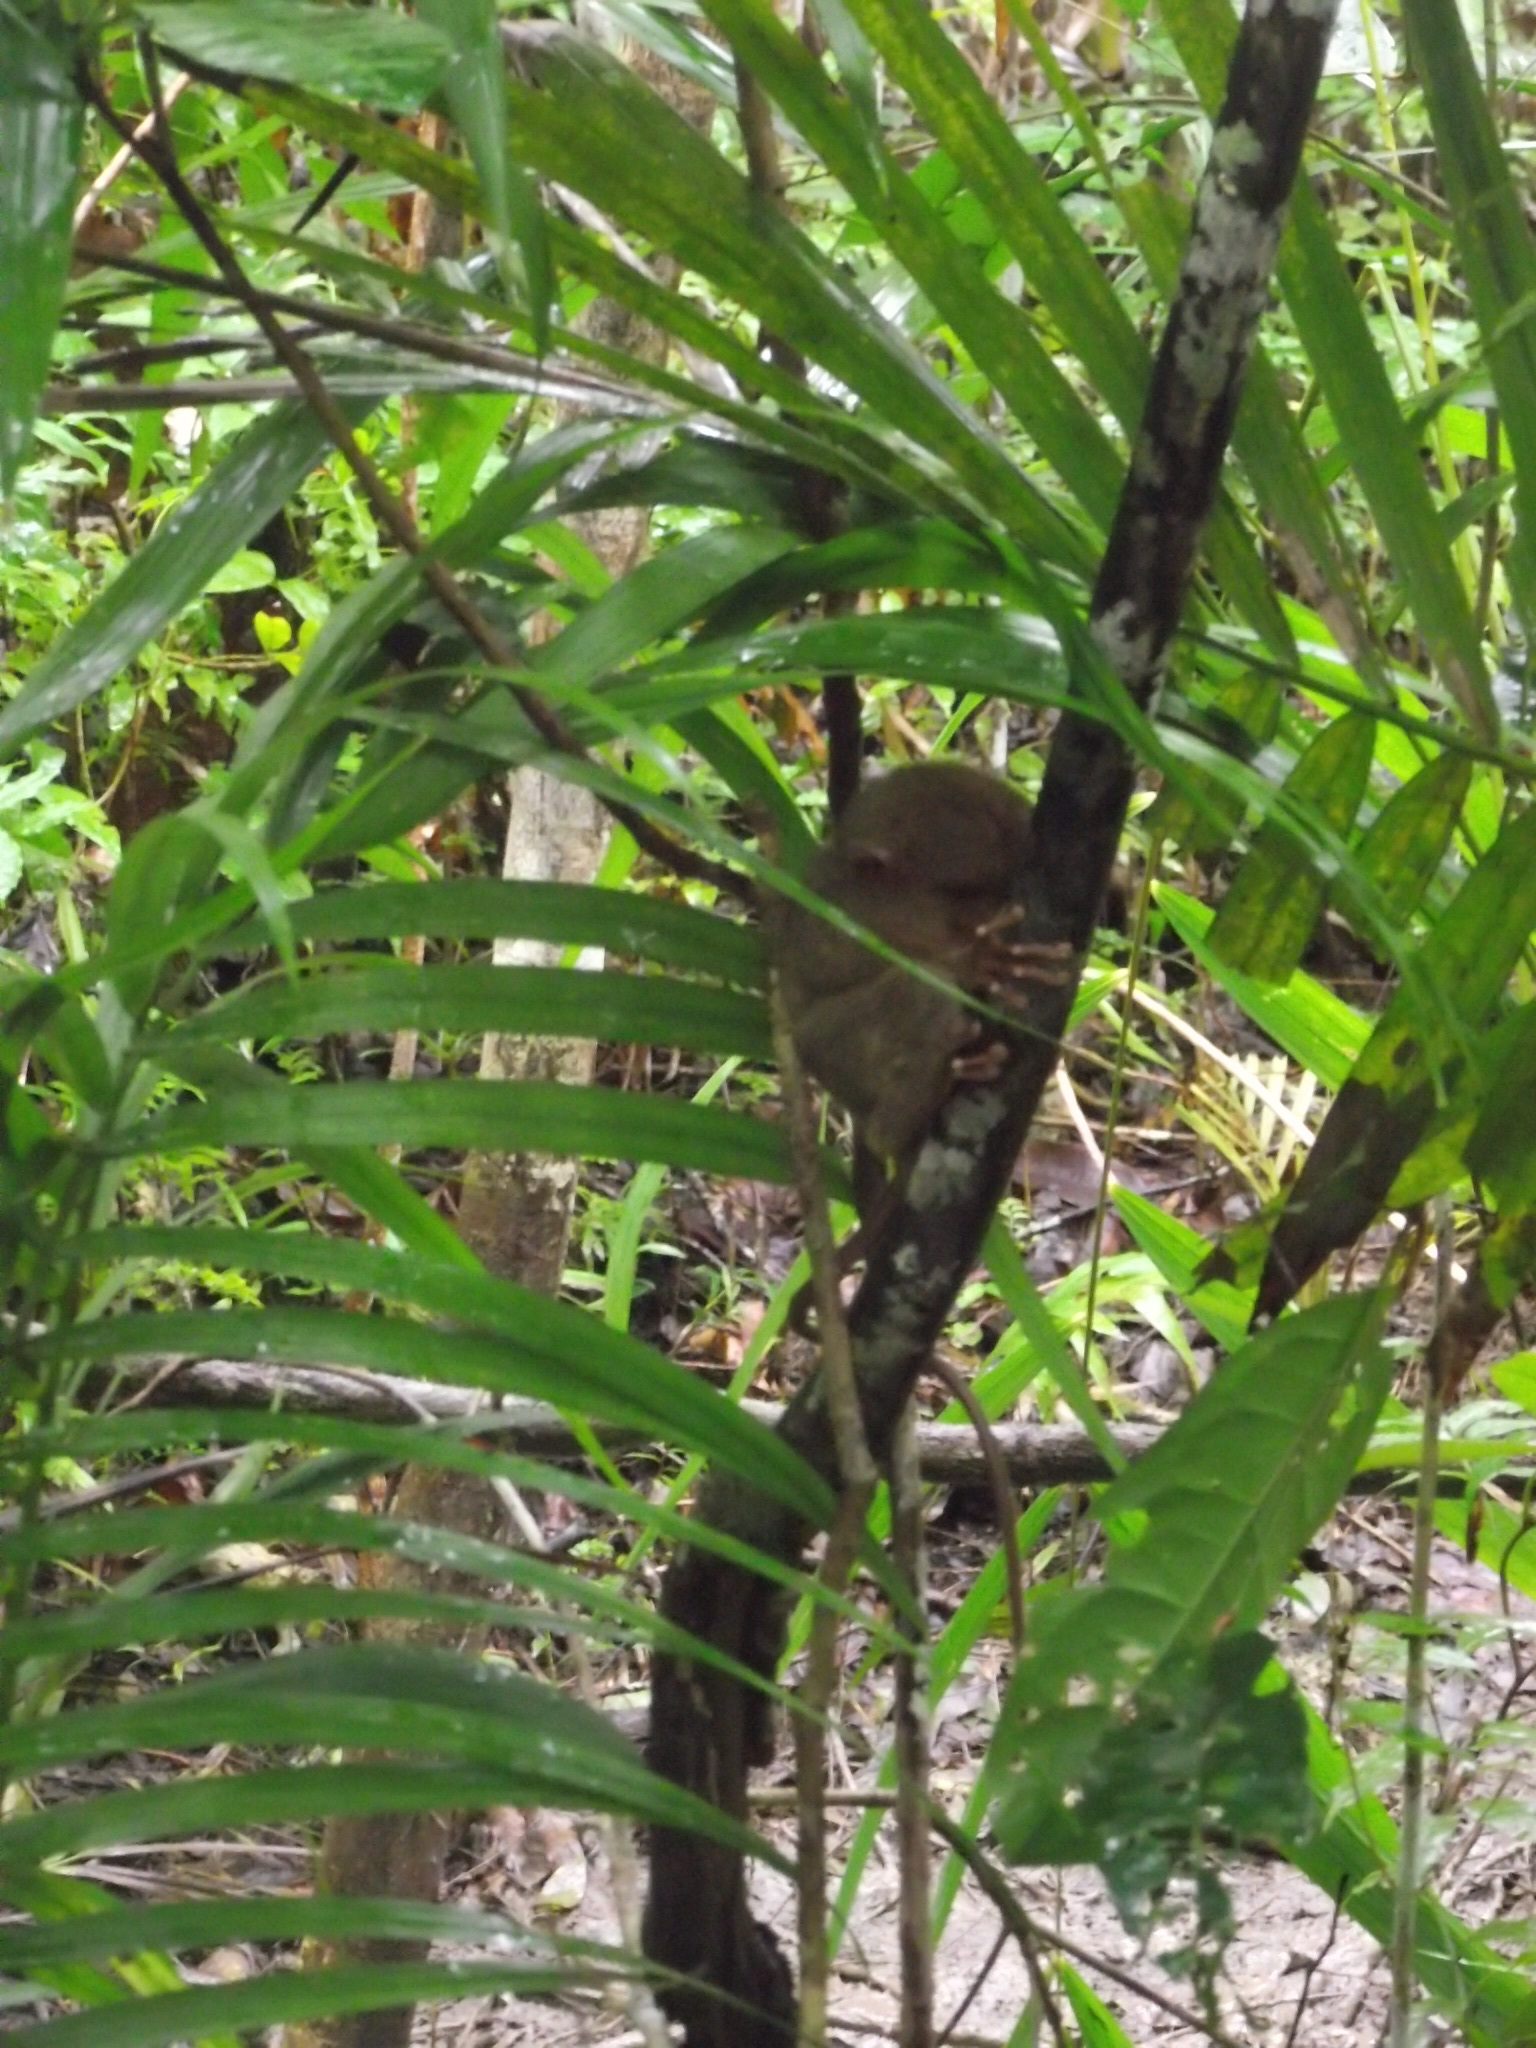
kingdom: Animalia
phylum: Chordata
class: Mammalia
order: Primates
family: Tarsiidae
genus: Carlito
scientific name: Carlito syrichta
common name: Philippine tarsier
